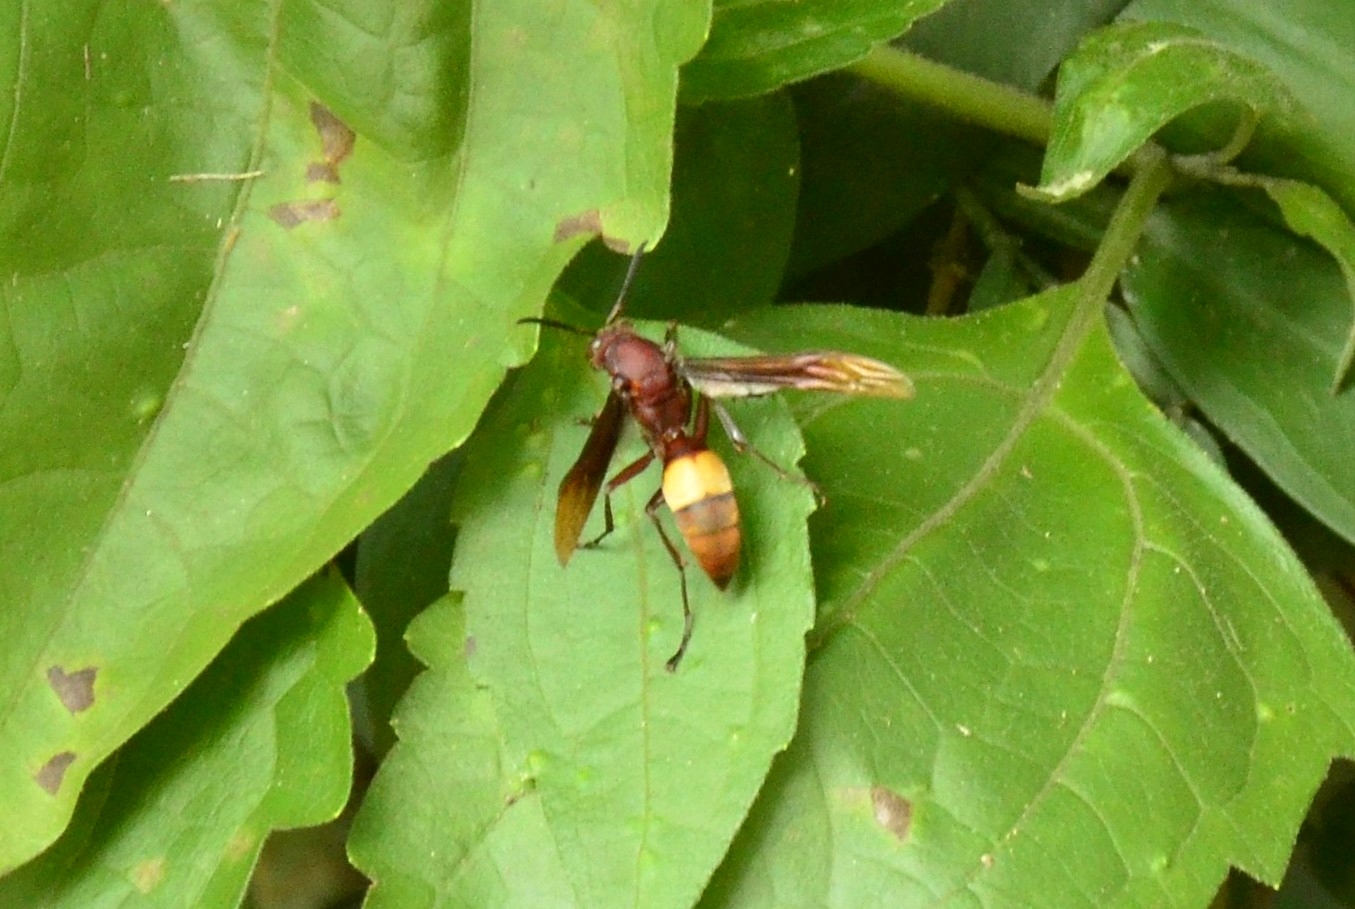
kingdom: Animalia
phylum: Arthropoda
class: Insecta
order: Hymenoptera
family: Eumenidae
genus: Polistes
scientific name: Polistes sagittarius
